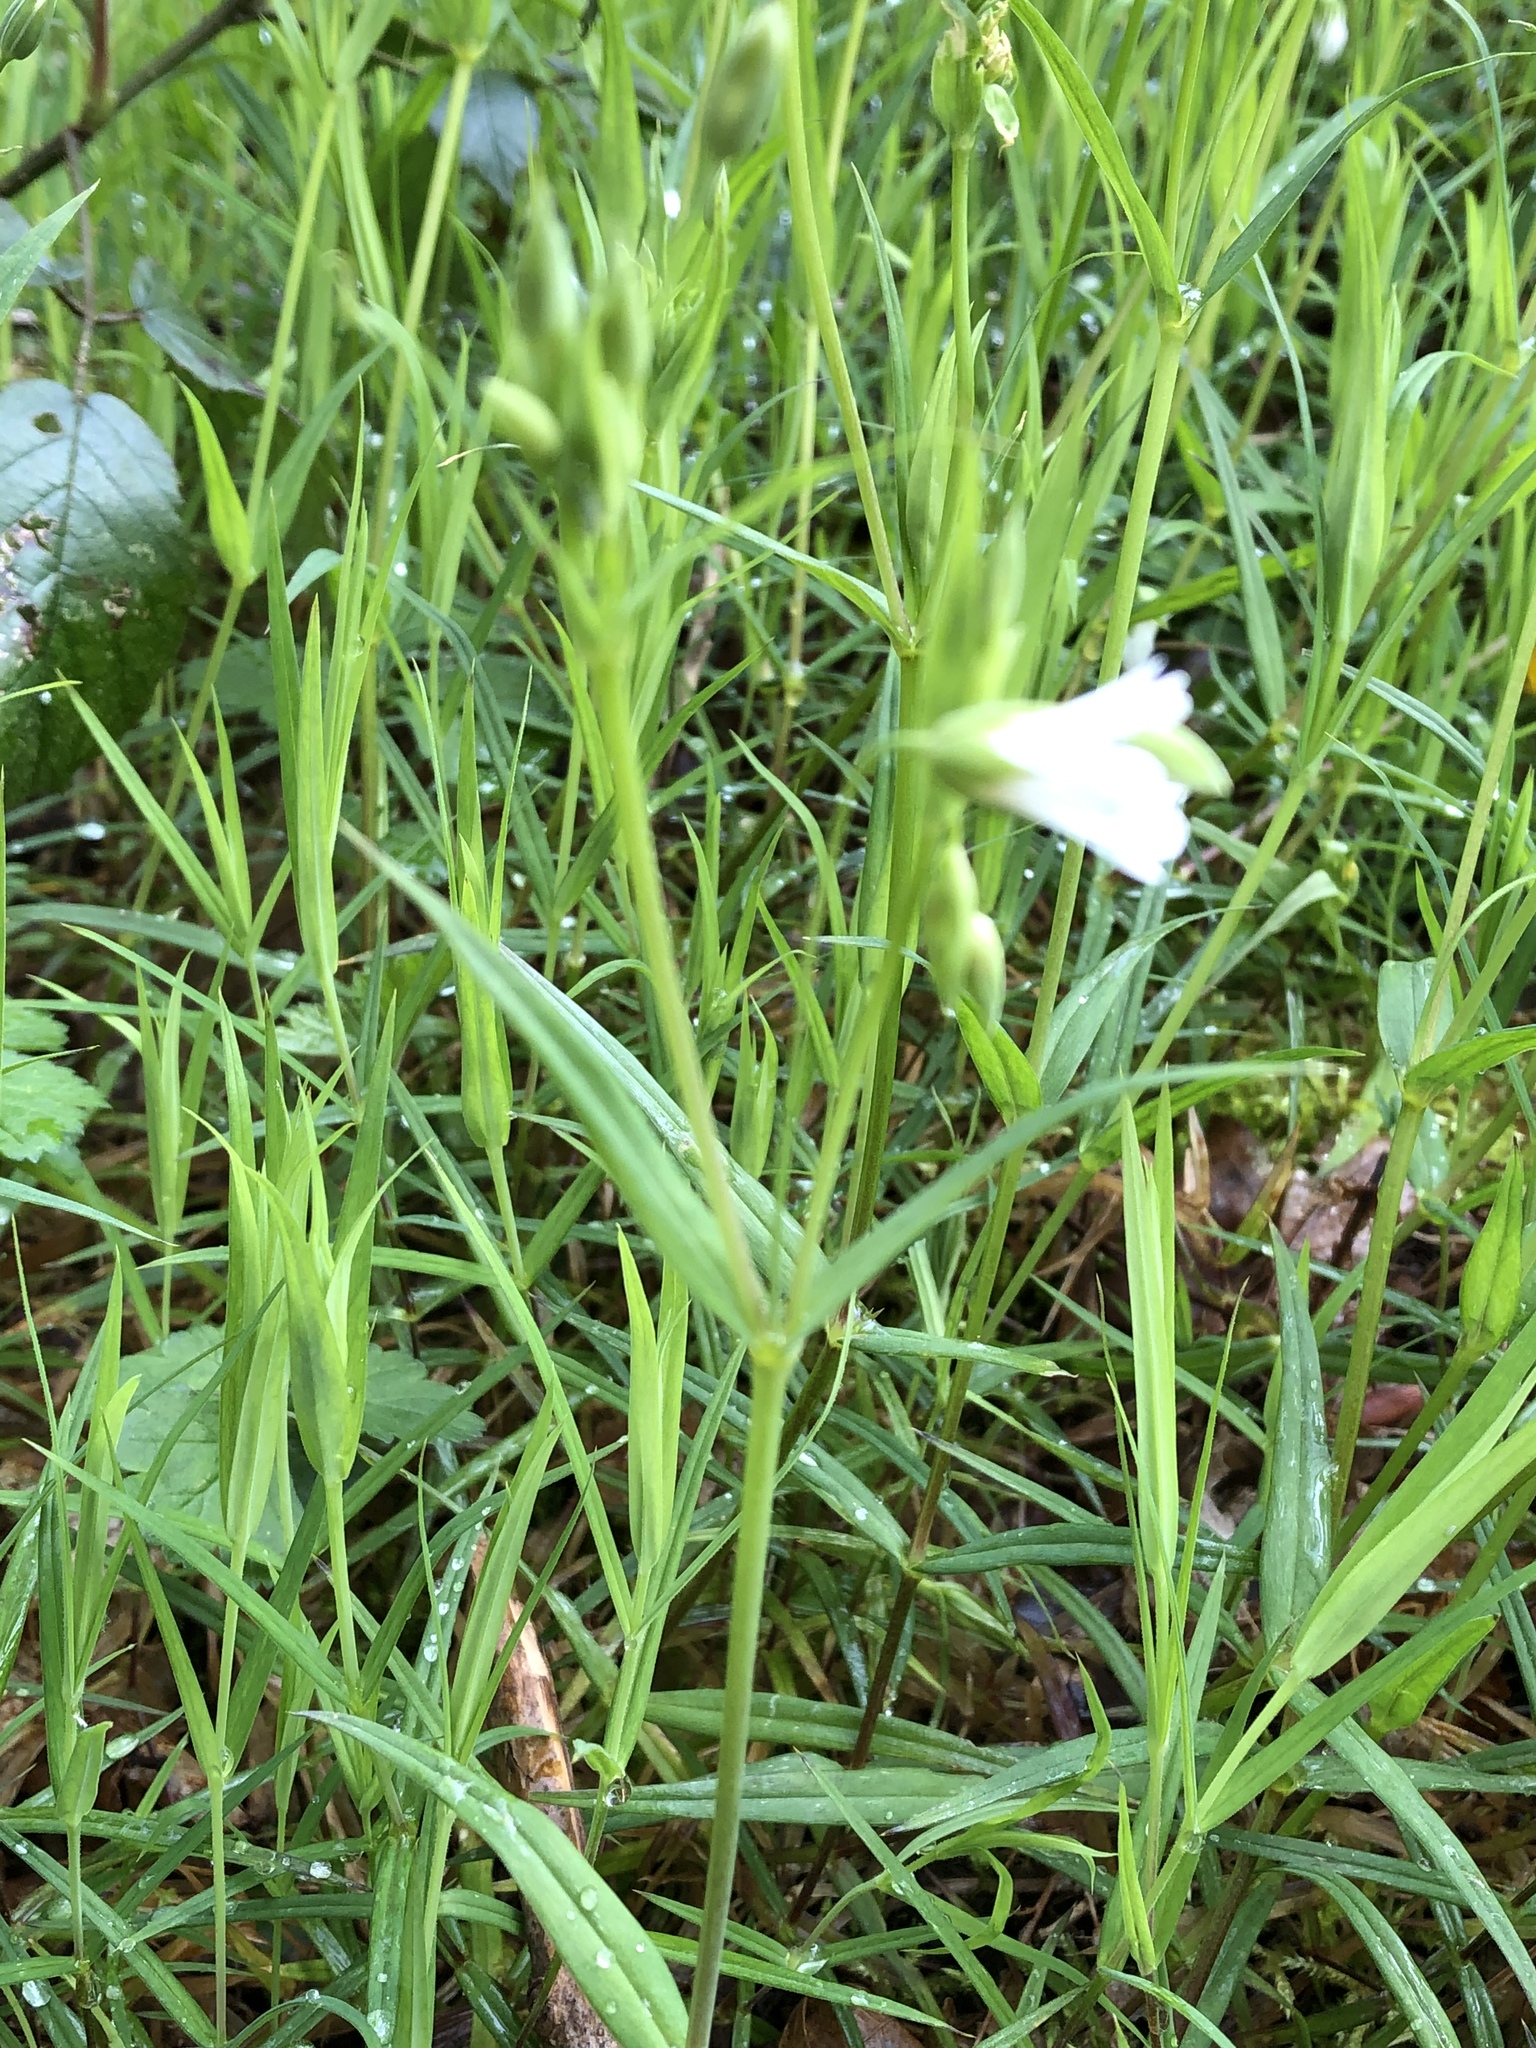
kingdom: Plantae
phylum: Tracheophyta
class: Magnoliopsida
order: Caryophyllales
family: Caryophyllaceae
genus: Rabelera
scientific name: Rabelera holostea
